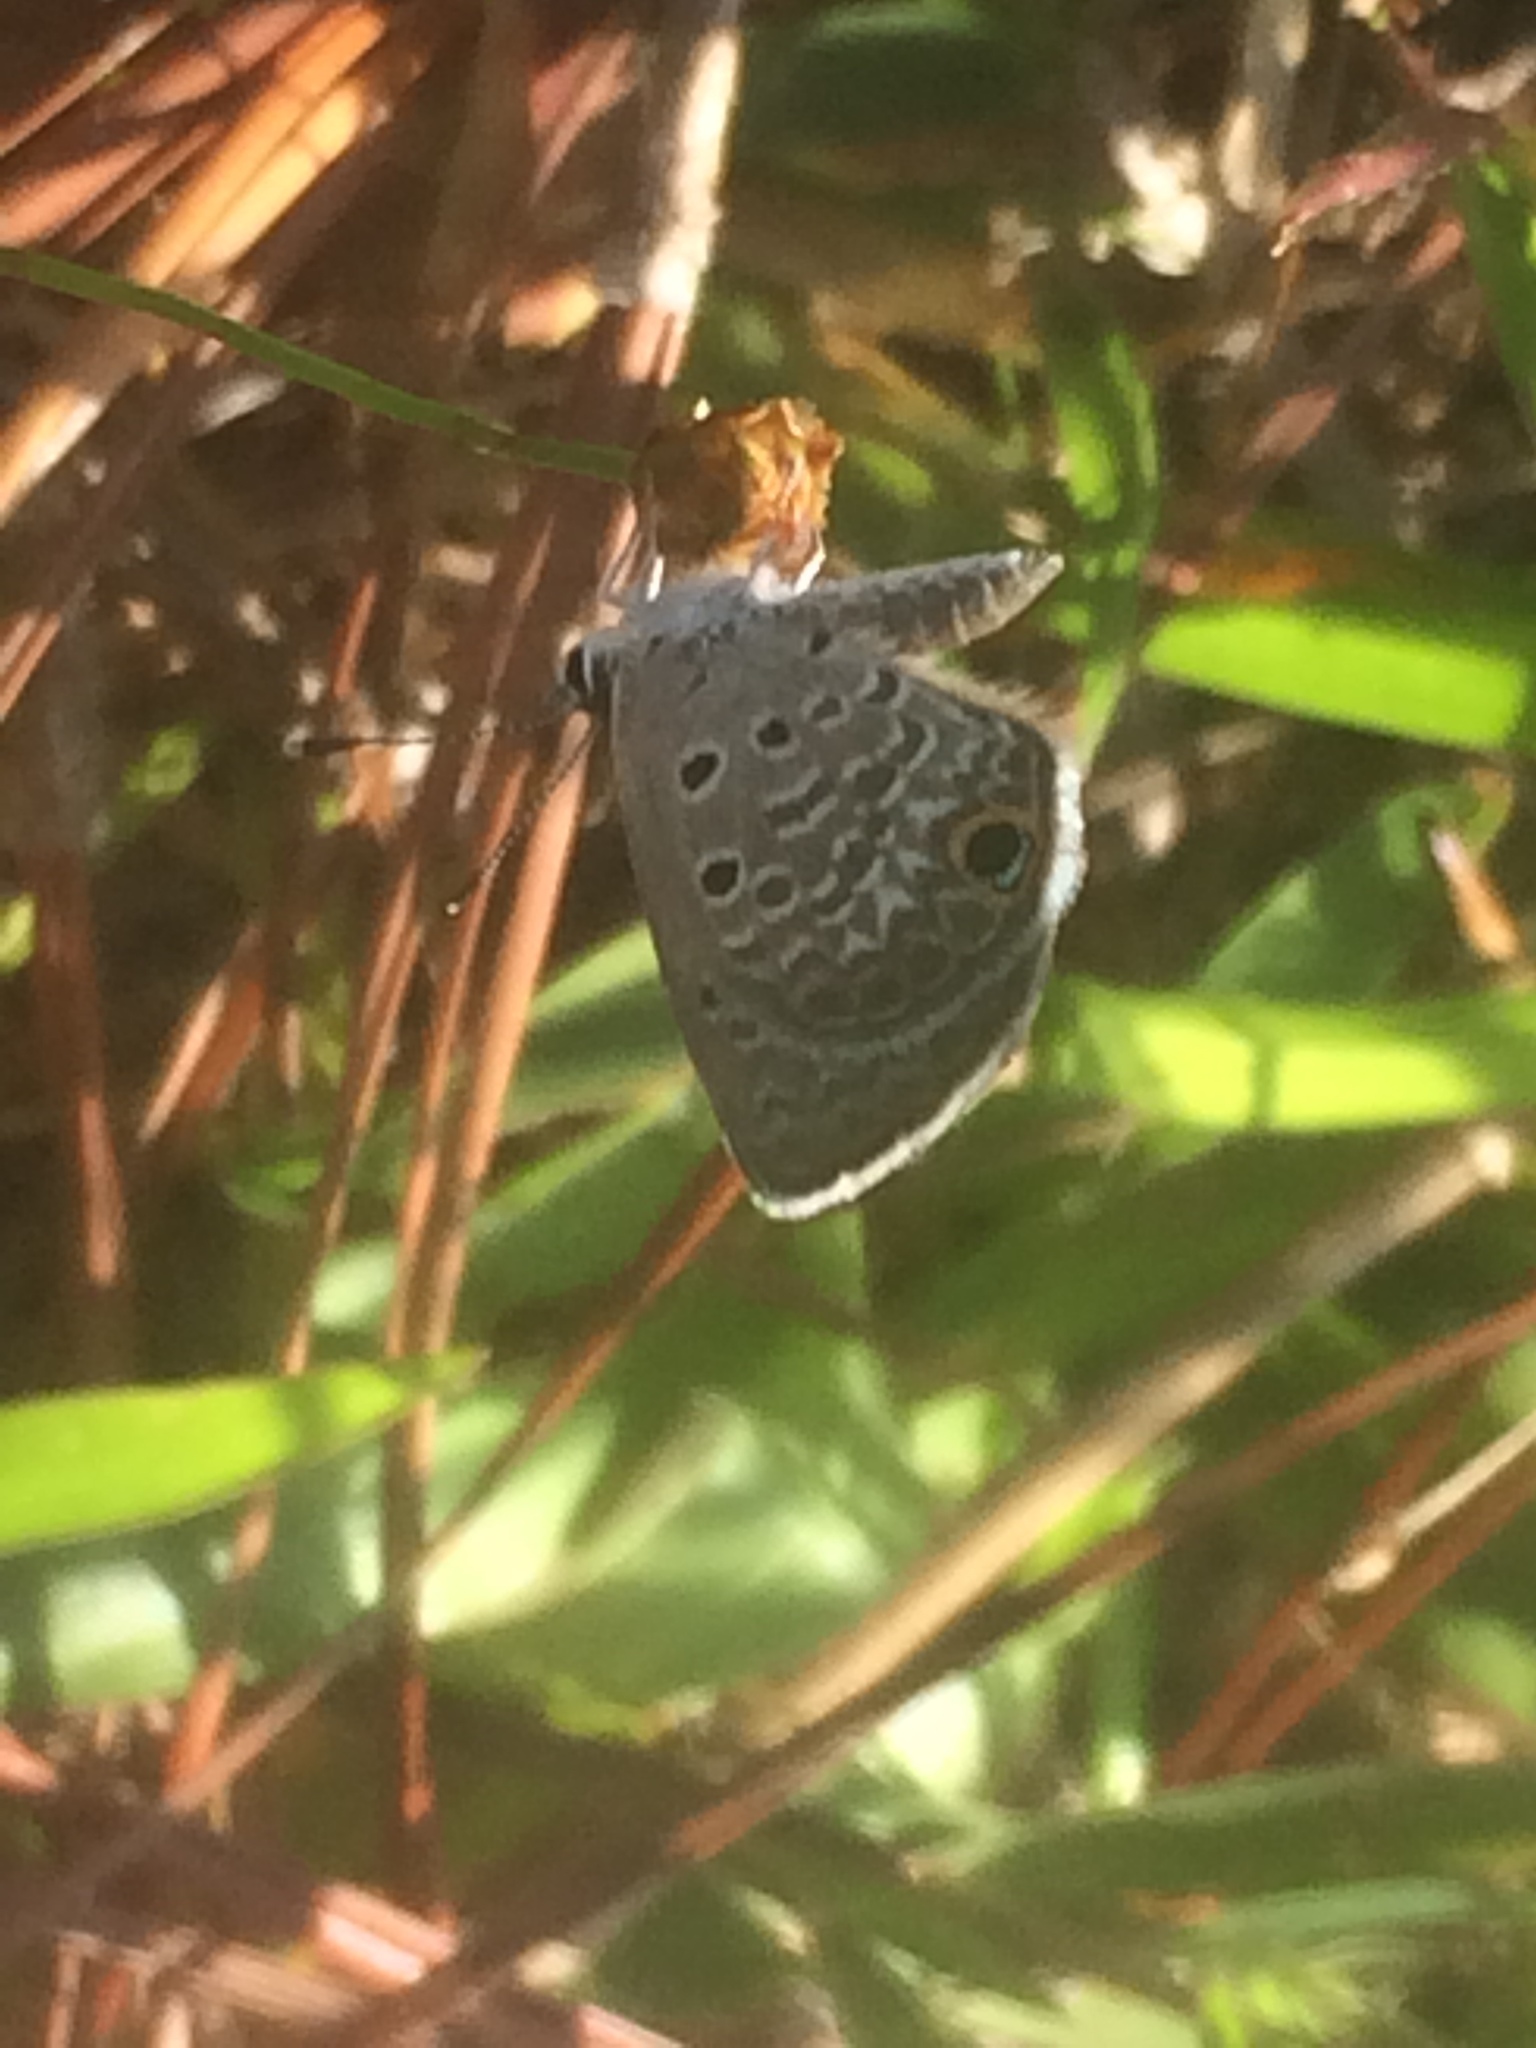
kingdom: Animalia
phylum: Arthropoda
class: Insecta
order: Lepidoptera
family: Lycaenidae
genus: Hemiargus
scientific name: Hemiargus ceraunus
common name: Ceraunus blue
